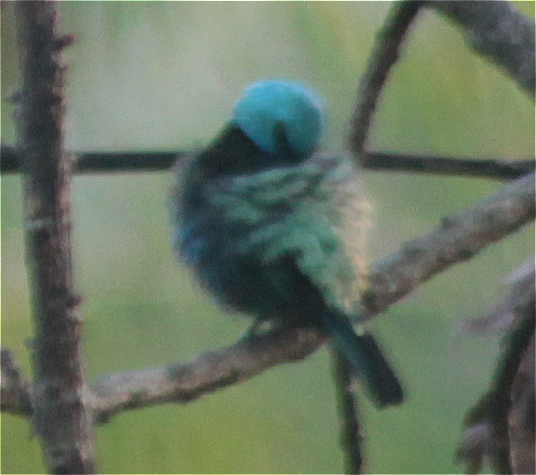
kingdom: Animalia
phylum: Chordata
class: Aves
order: Passeriformes
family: Thraupidae
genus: Stilpnia
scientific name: Stilpnia cyanicollis
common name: Blue-necked tanager
